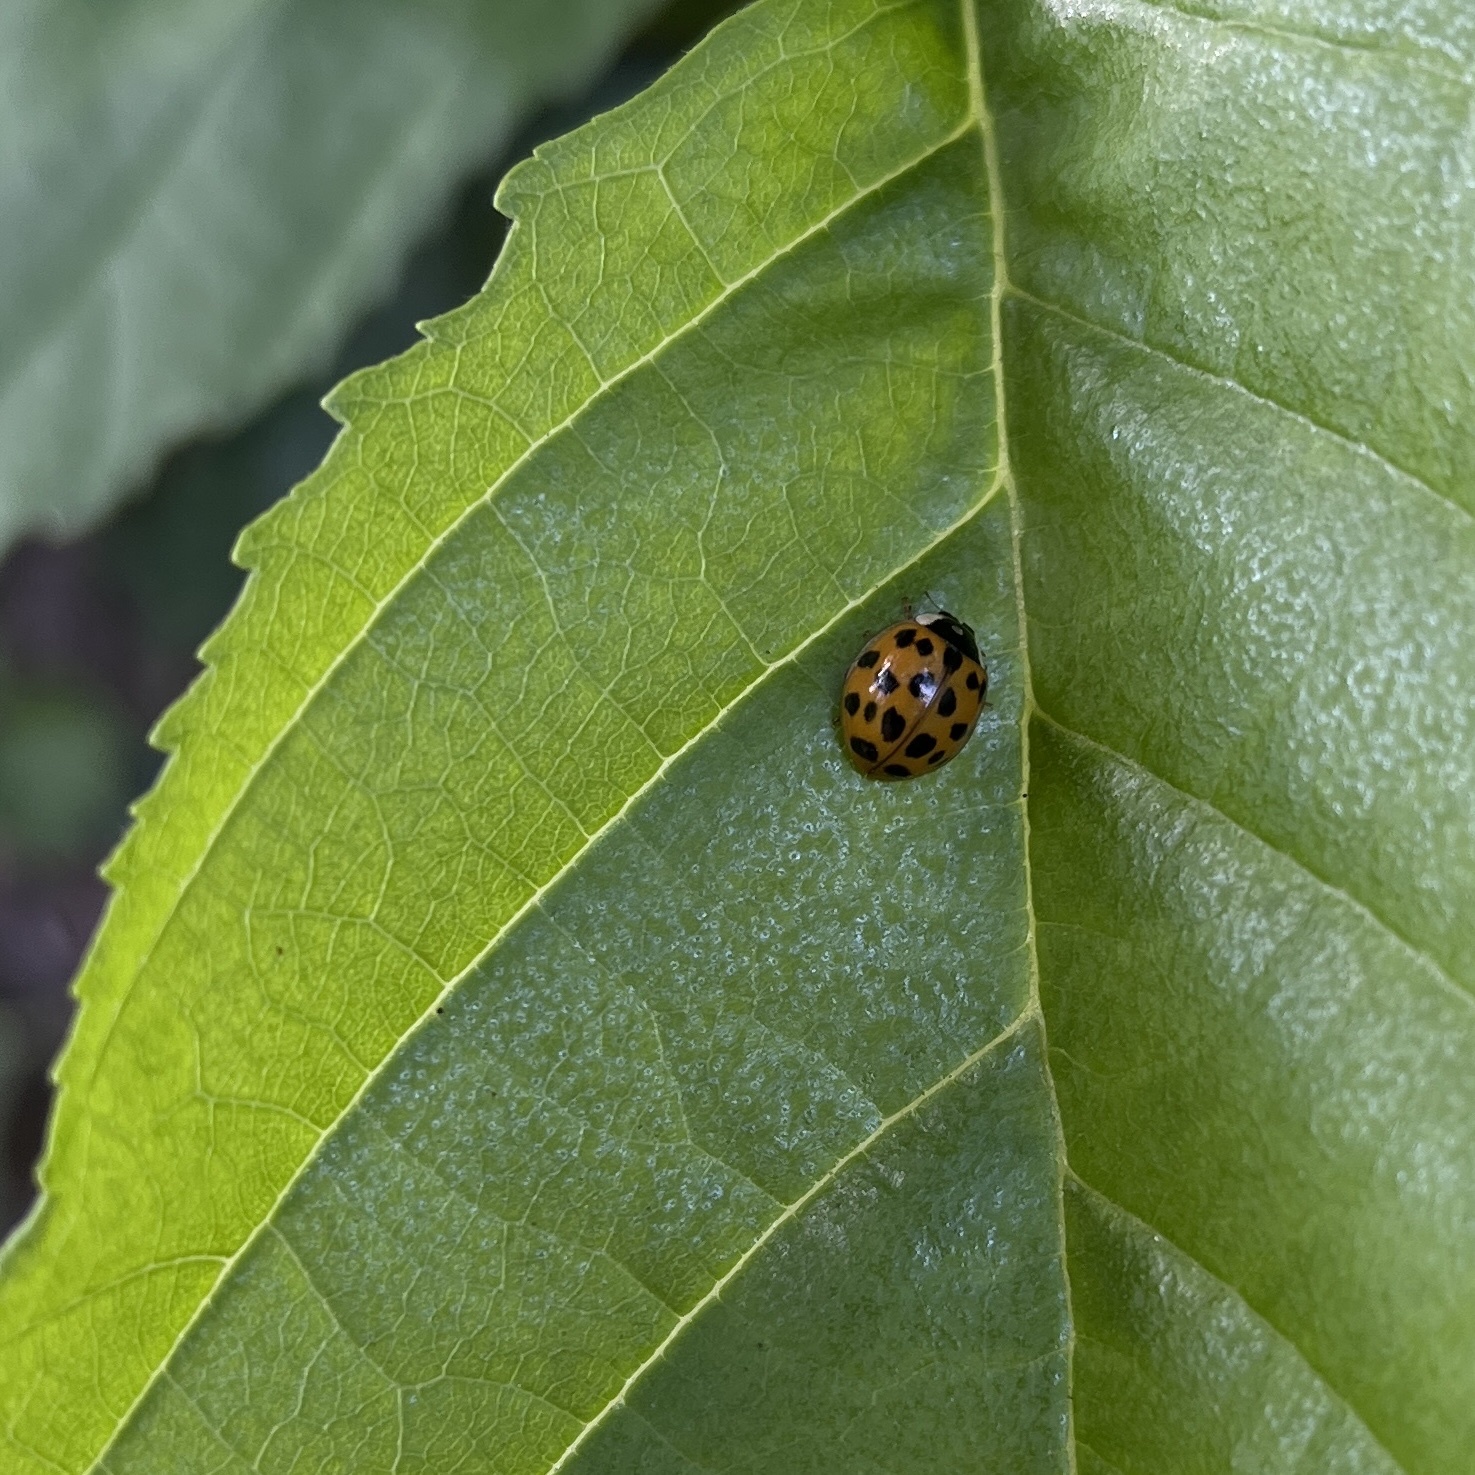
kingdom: Animalia
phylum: Arthropoda
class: Insecta
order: Coleoptera
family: Coccinellidae
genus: Harmonia
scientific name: Harmonia axyridis
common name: Harlequin ladybird
